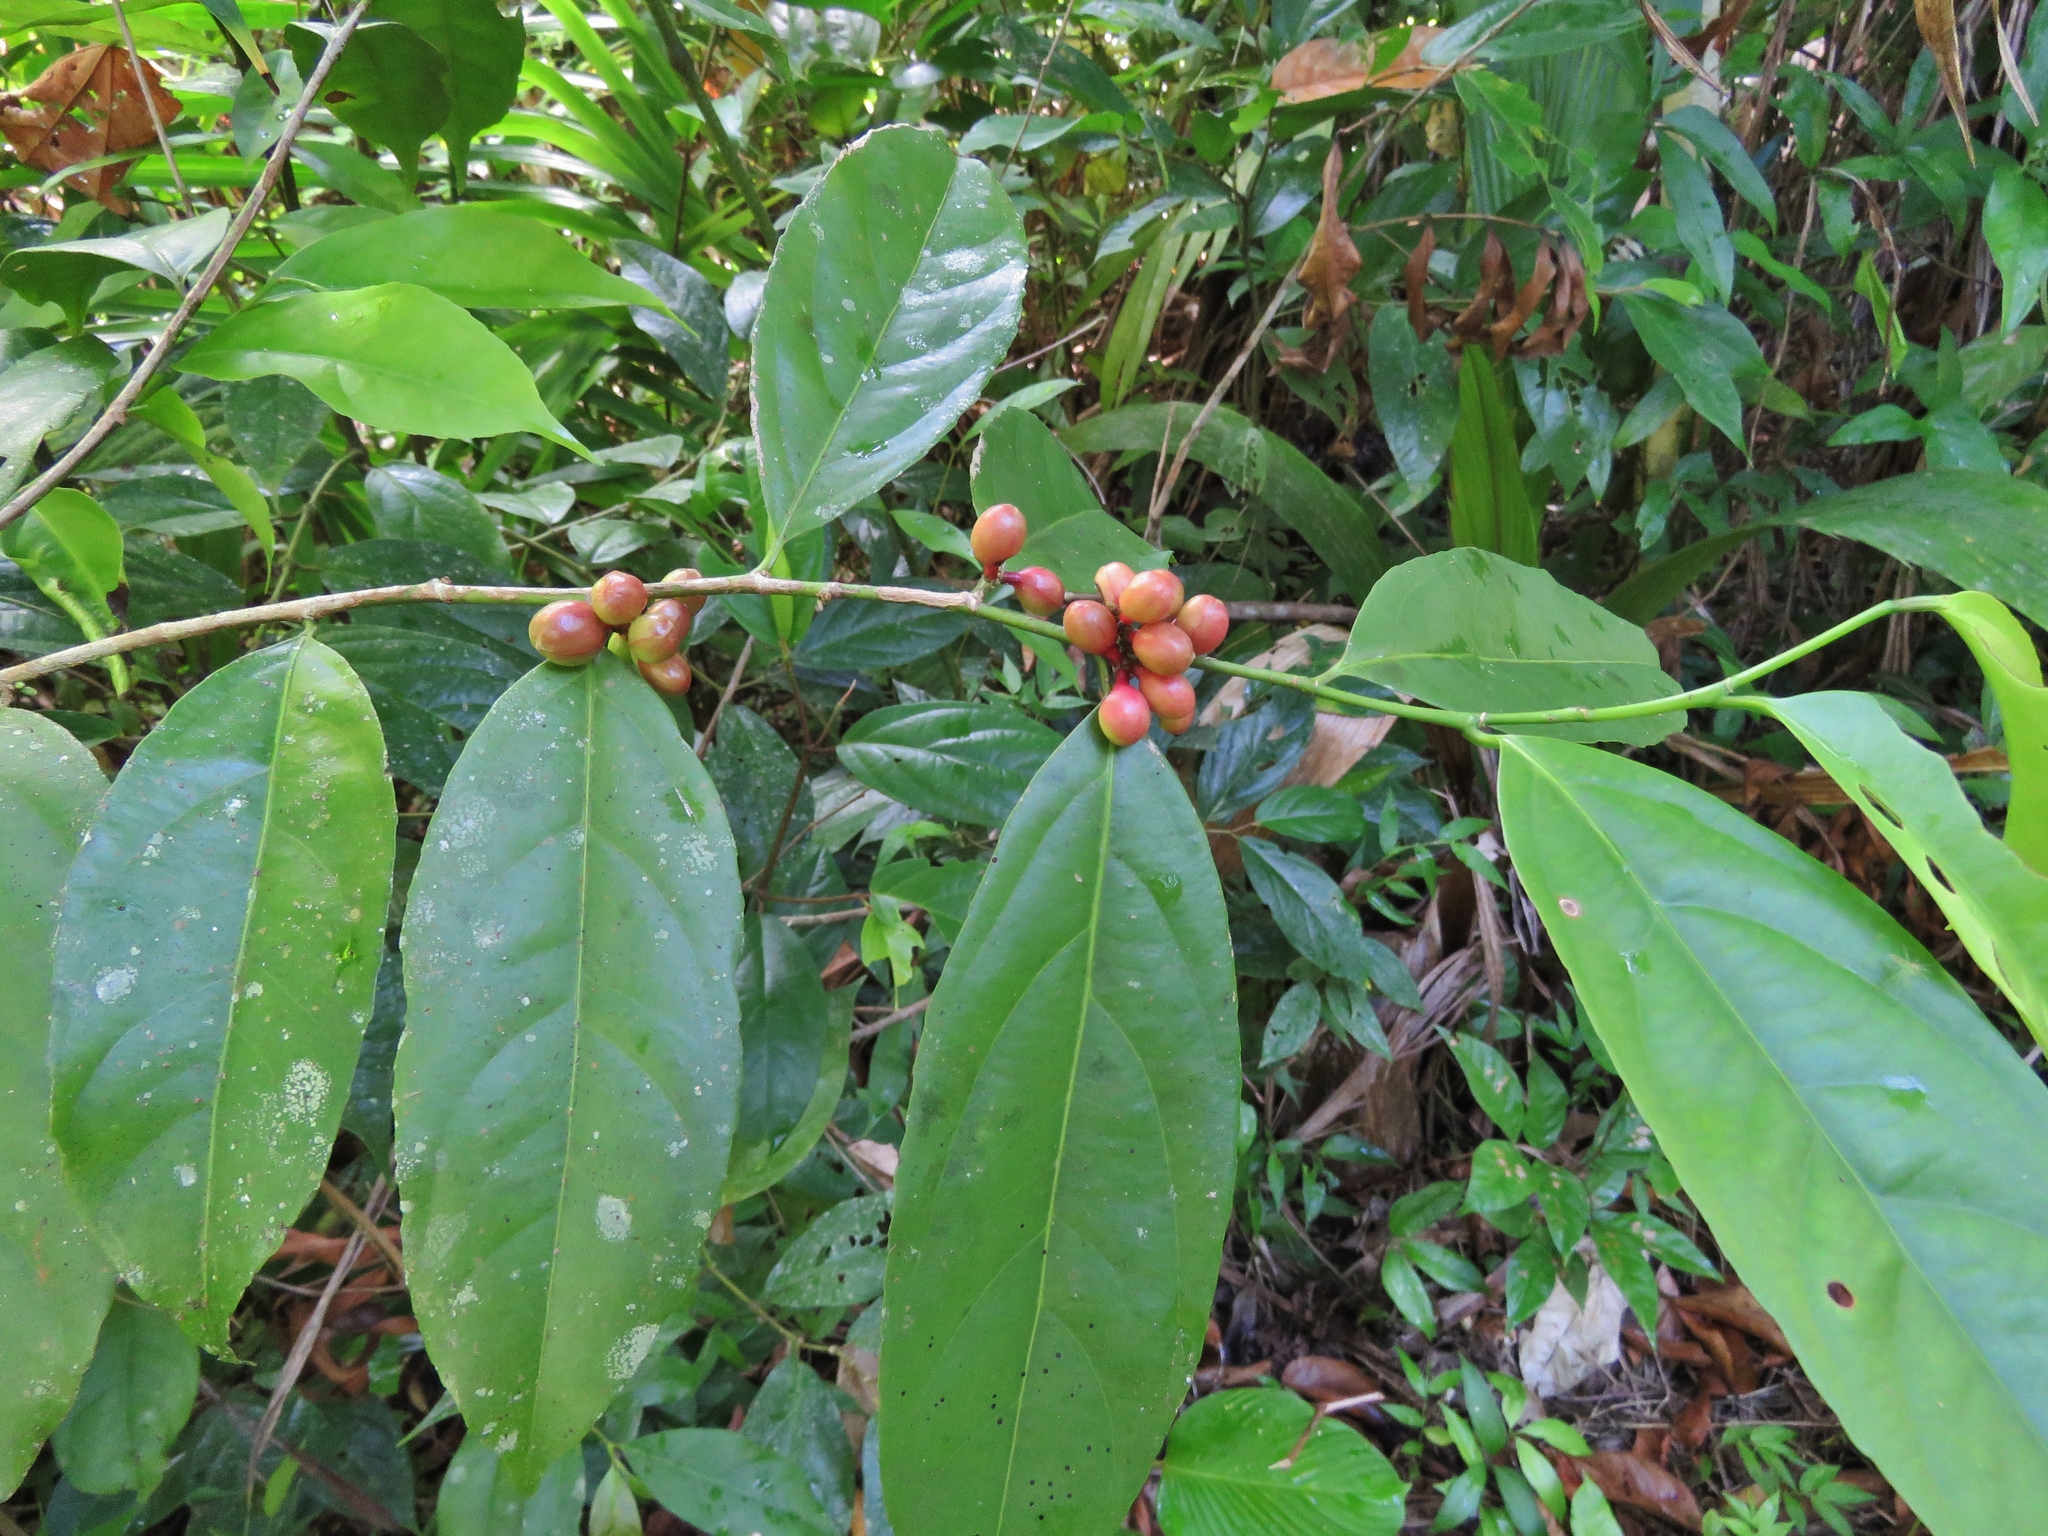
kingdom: Plantae
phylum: Tracheophyta
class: Magnoliopsida
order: Gentianales
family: Rubiaceae
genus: Coffea
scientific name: Coffea arabica
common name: Coffee
